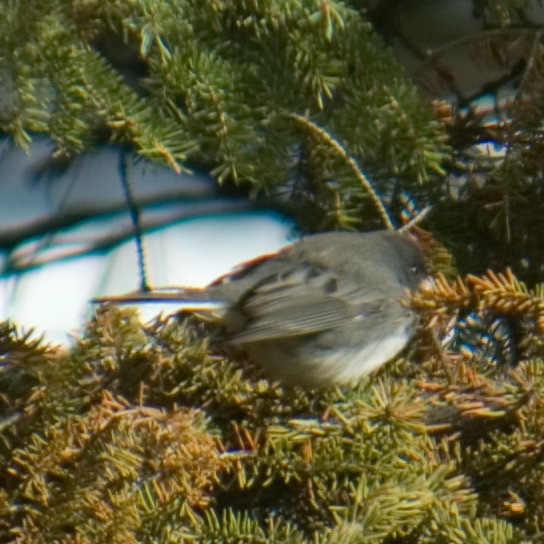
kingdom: Animalia
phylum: Chordata
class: Aves
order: Passeriformes
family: Passerellidae
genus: Junco
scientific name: Junco hyemalis
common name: Dark-eyed junco
